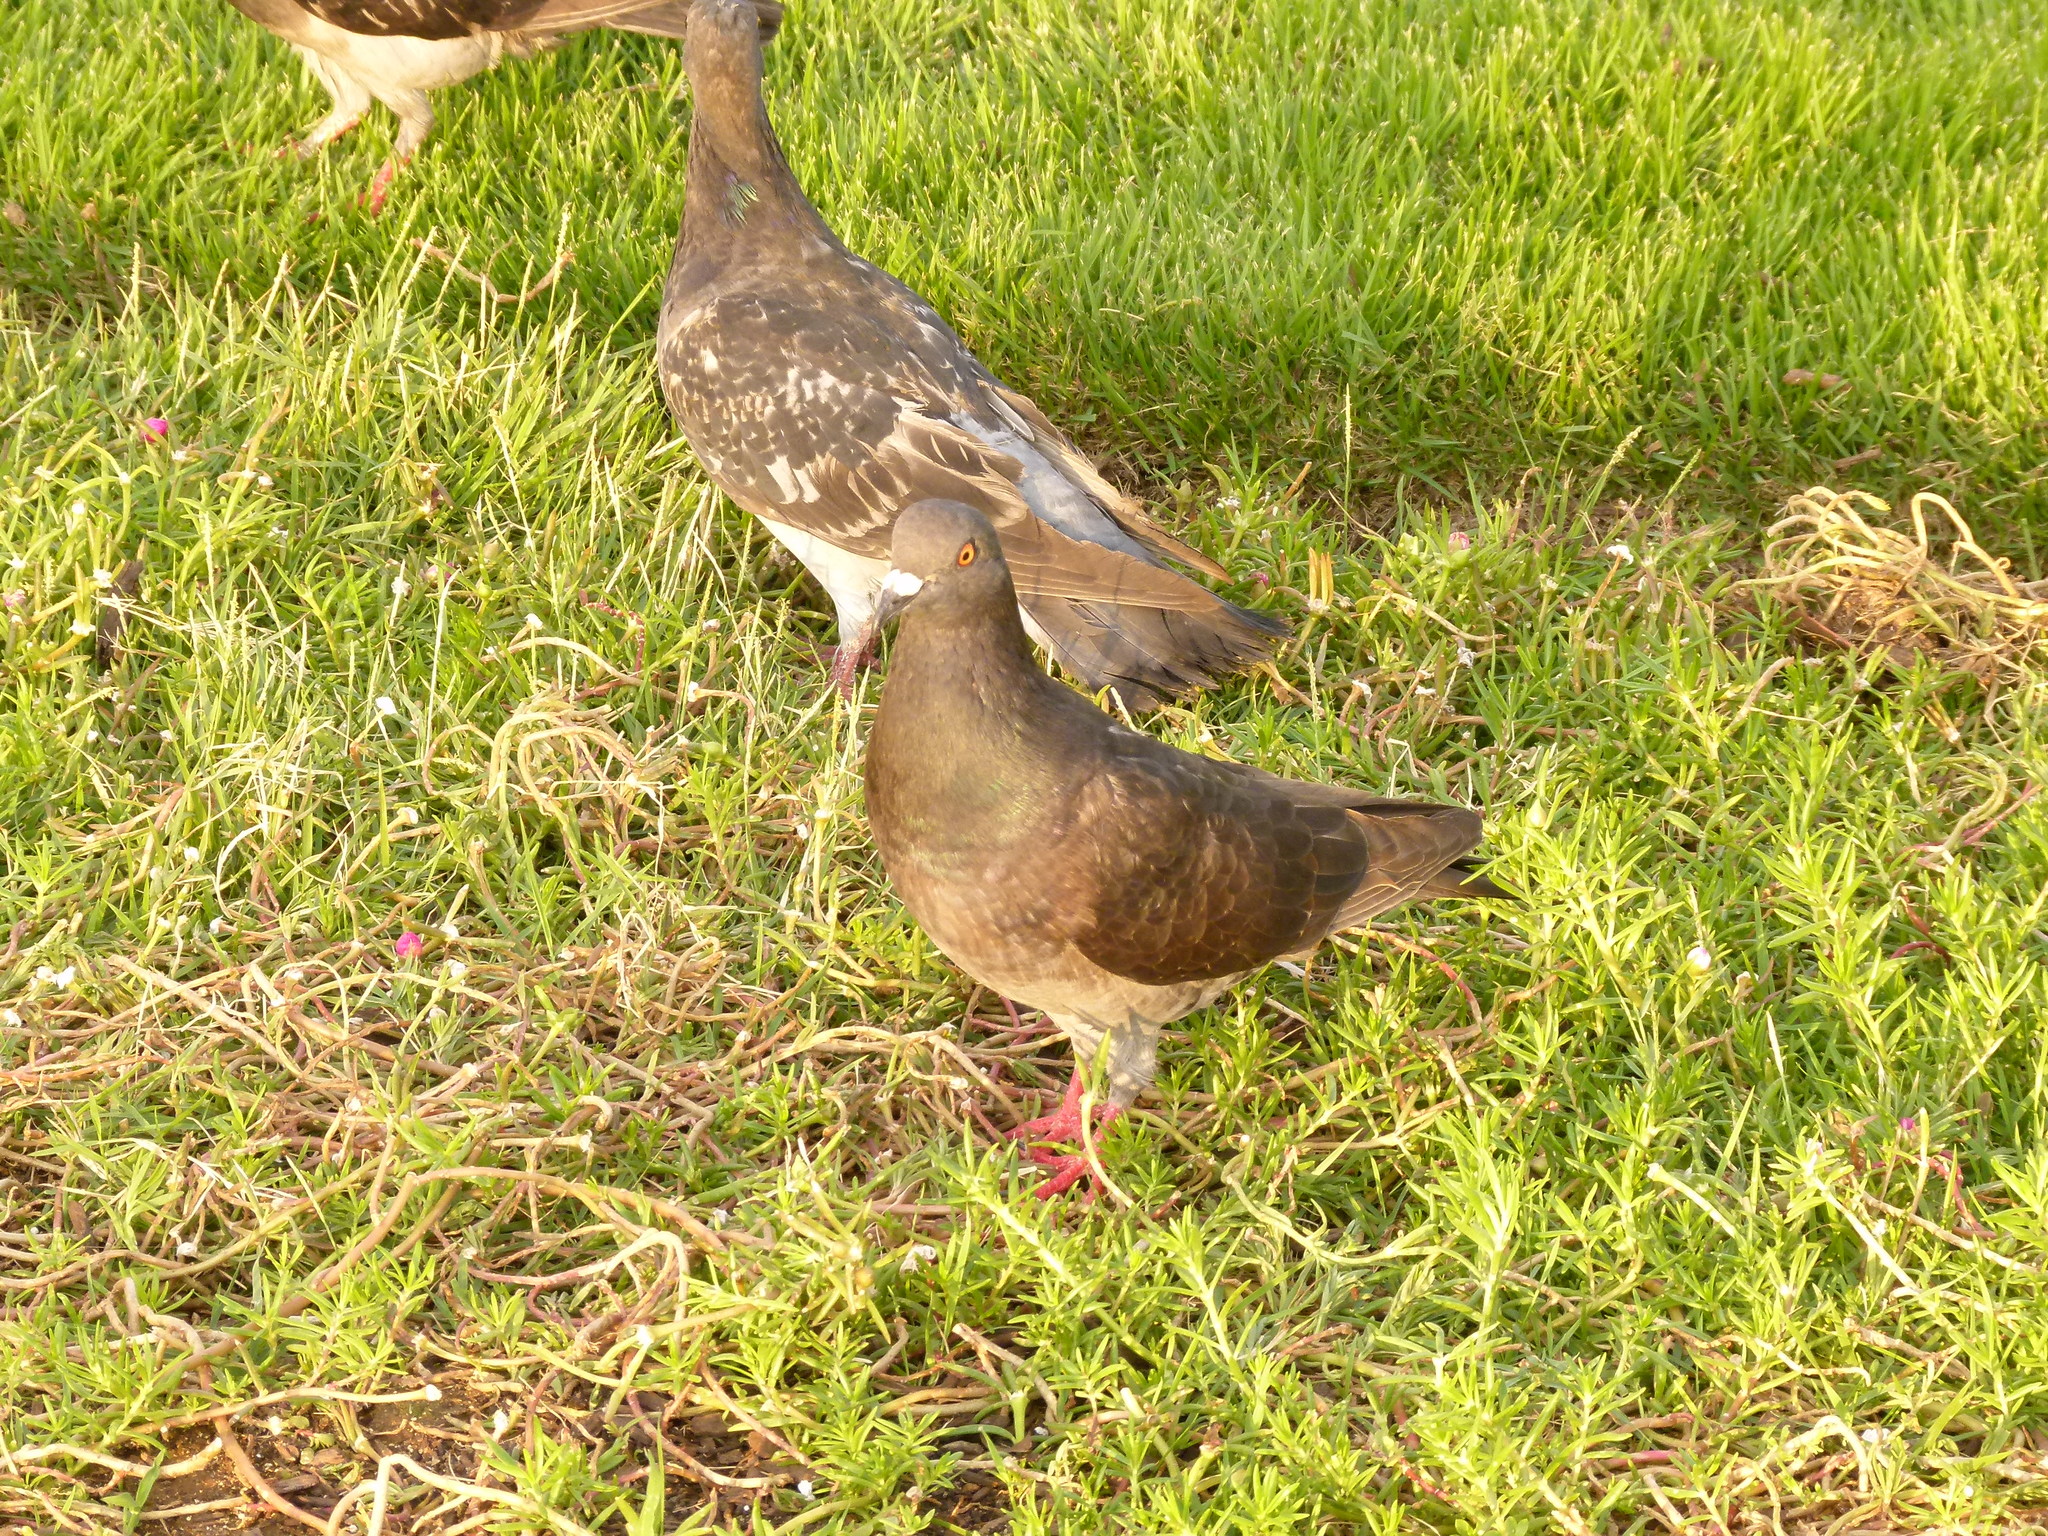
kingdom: Animalia
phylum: Chordata
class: Aves
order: Columbiformes
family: Columbidae
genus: Columba
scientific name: Columba livia
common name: Rock pigeon
